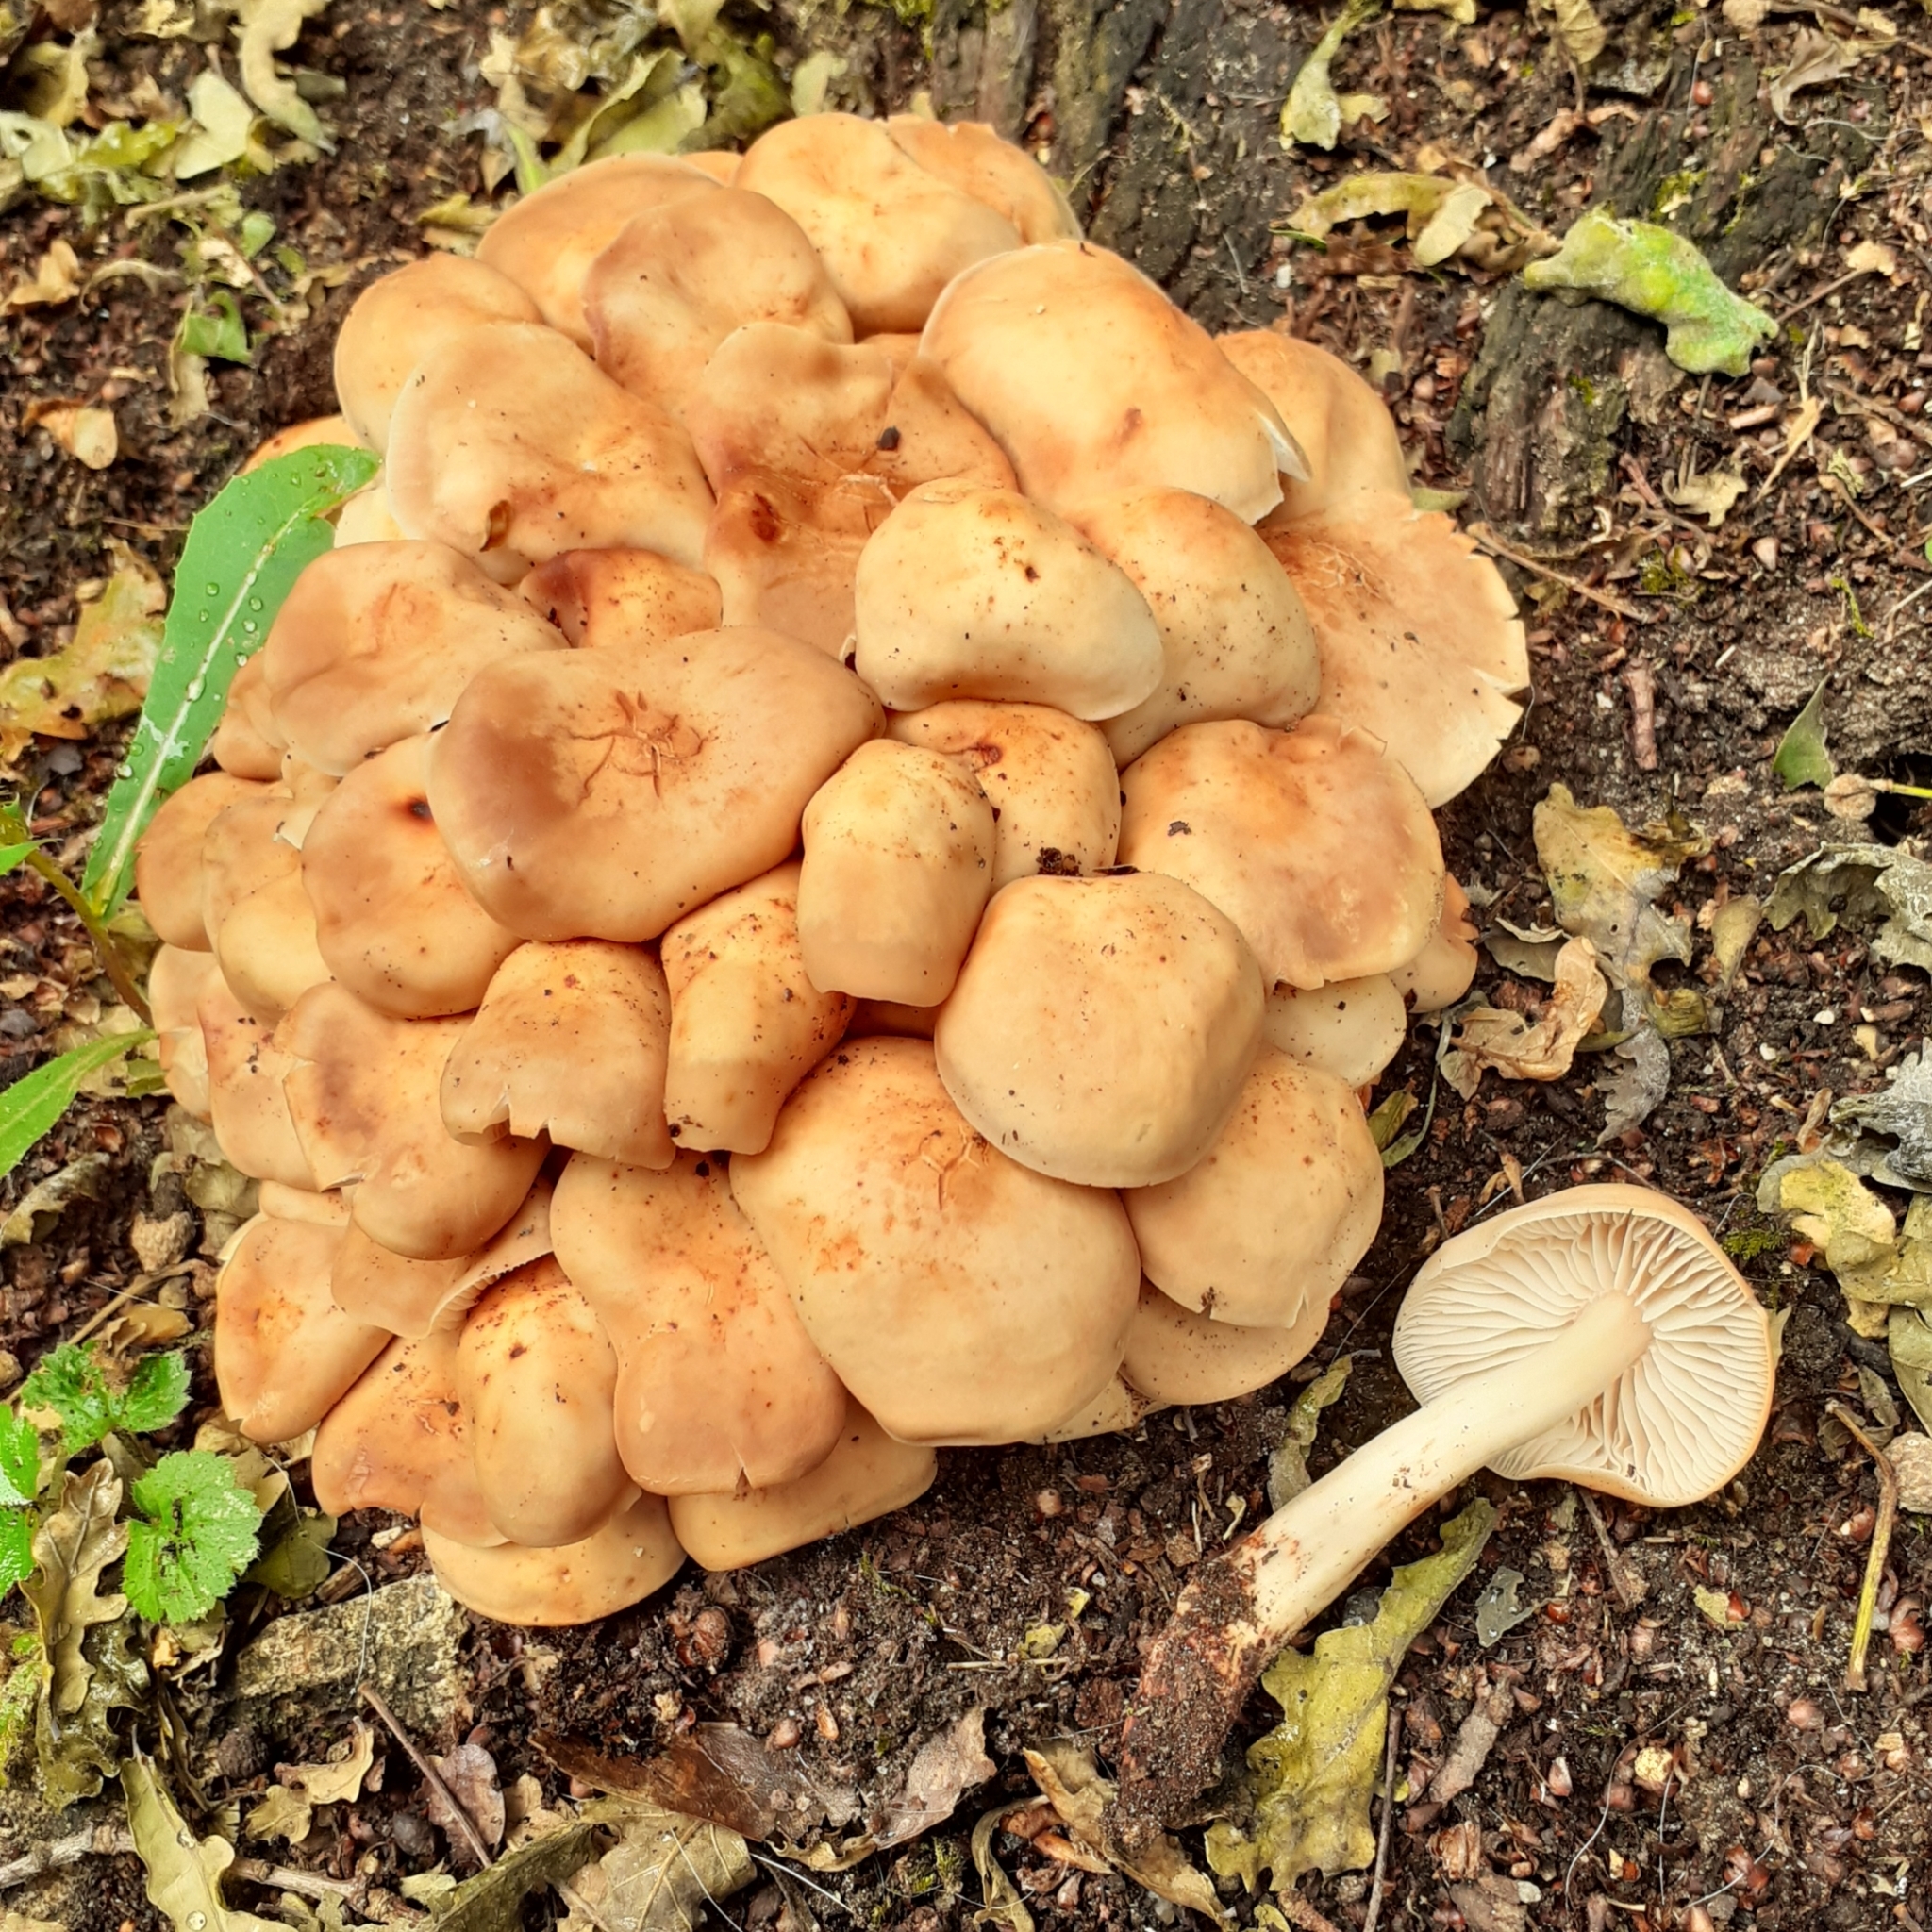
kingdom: Fungi
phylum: Basidiomycota
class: Agaricomycetes
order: Agaricales
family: Omphalotaceae
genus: Gymnopus
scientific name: Gymnopus fusipes
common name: Spindle shank
